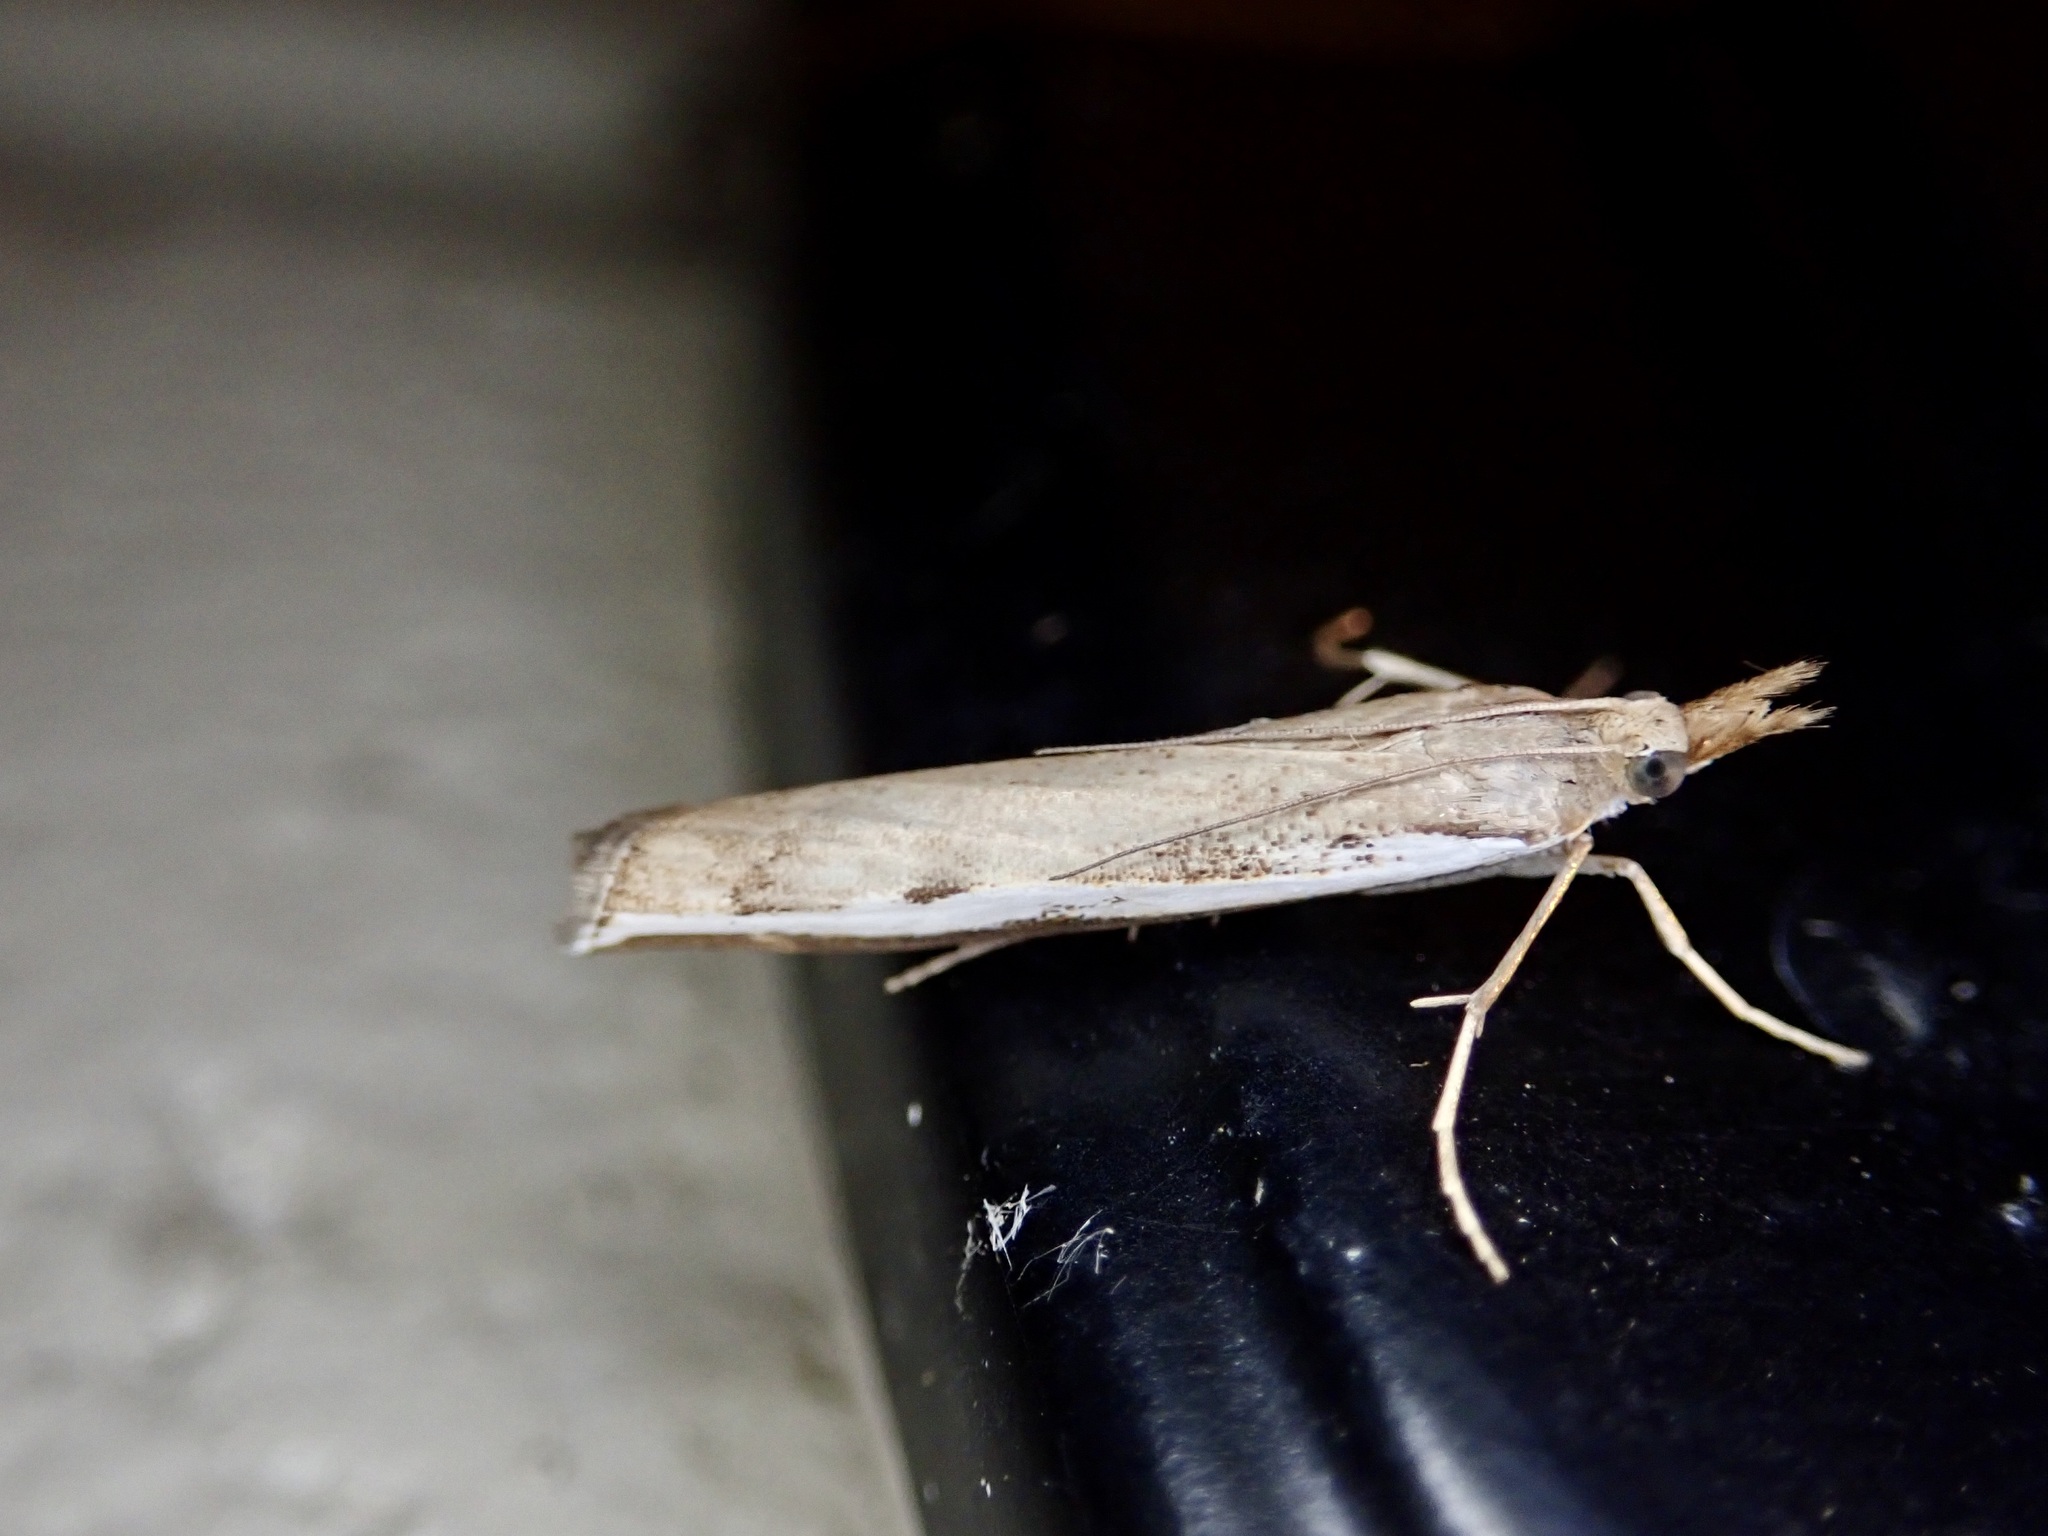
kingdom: Animalia
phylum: Arthropoda
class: Insecta
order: Lepidoptera
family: Crambidae
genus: Orocrambus
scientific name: Orocrambus flexuosellus
